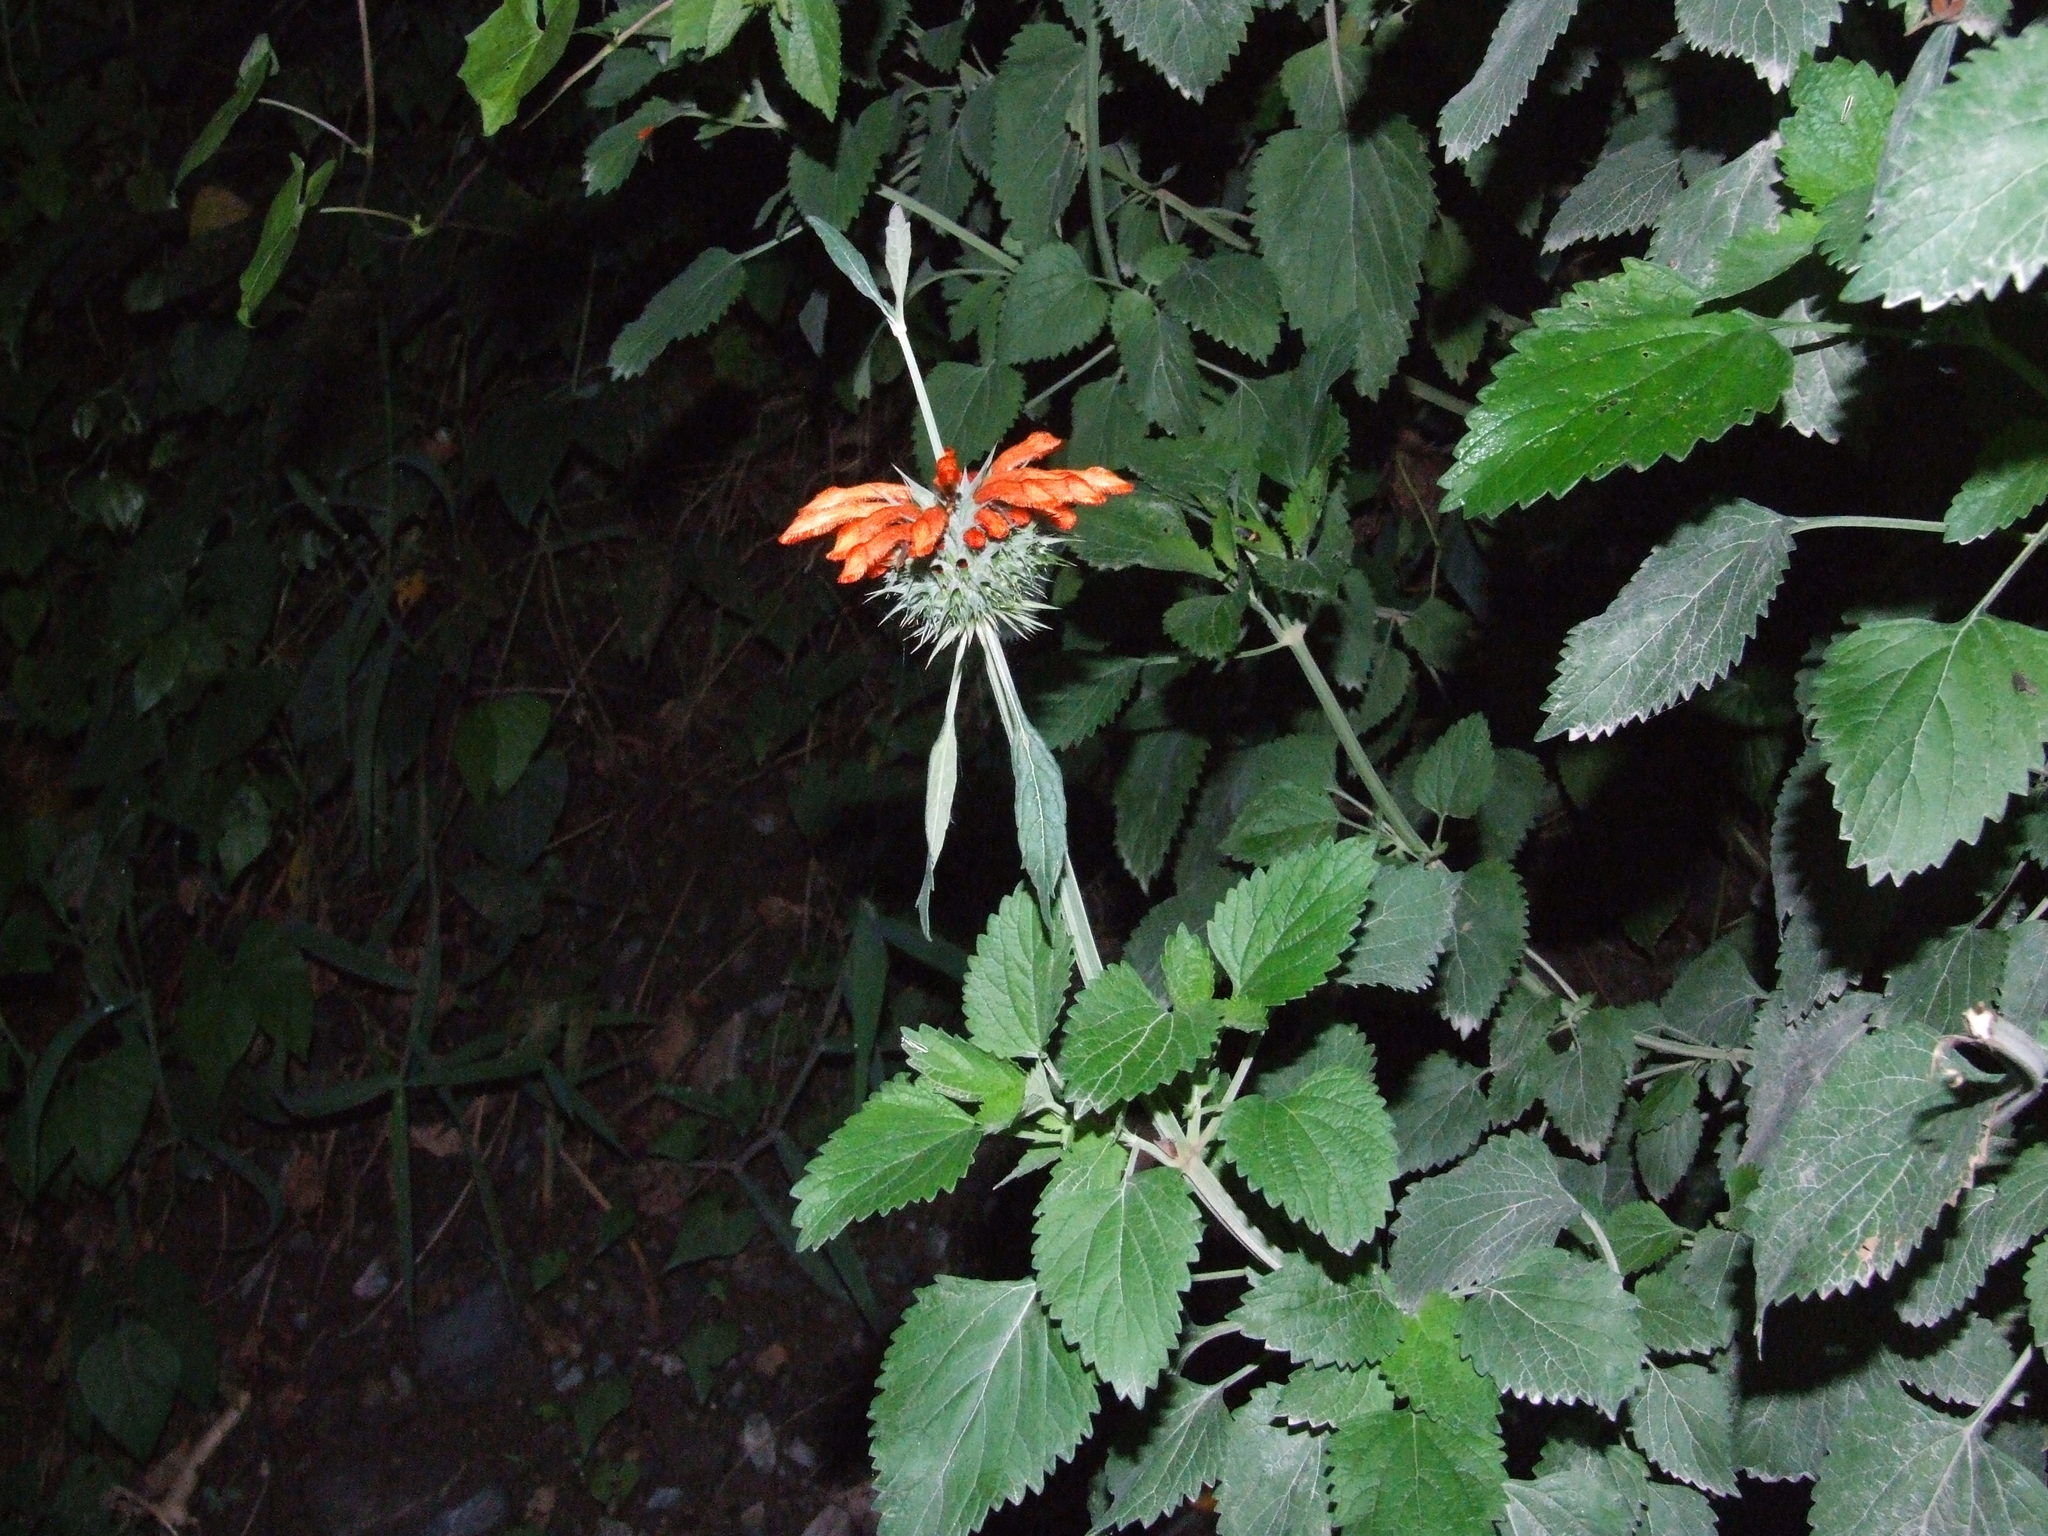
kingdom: Plantae
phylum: Tracheophyta
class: Magnoliopsida
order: Lamiales
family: Lamiaceae
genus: Leonotis
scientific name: Leonotis nepetifolia
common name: Christmas candlestick
